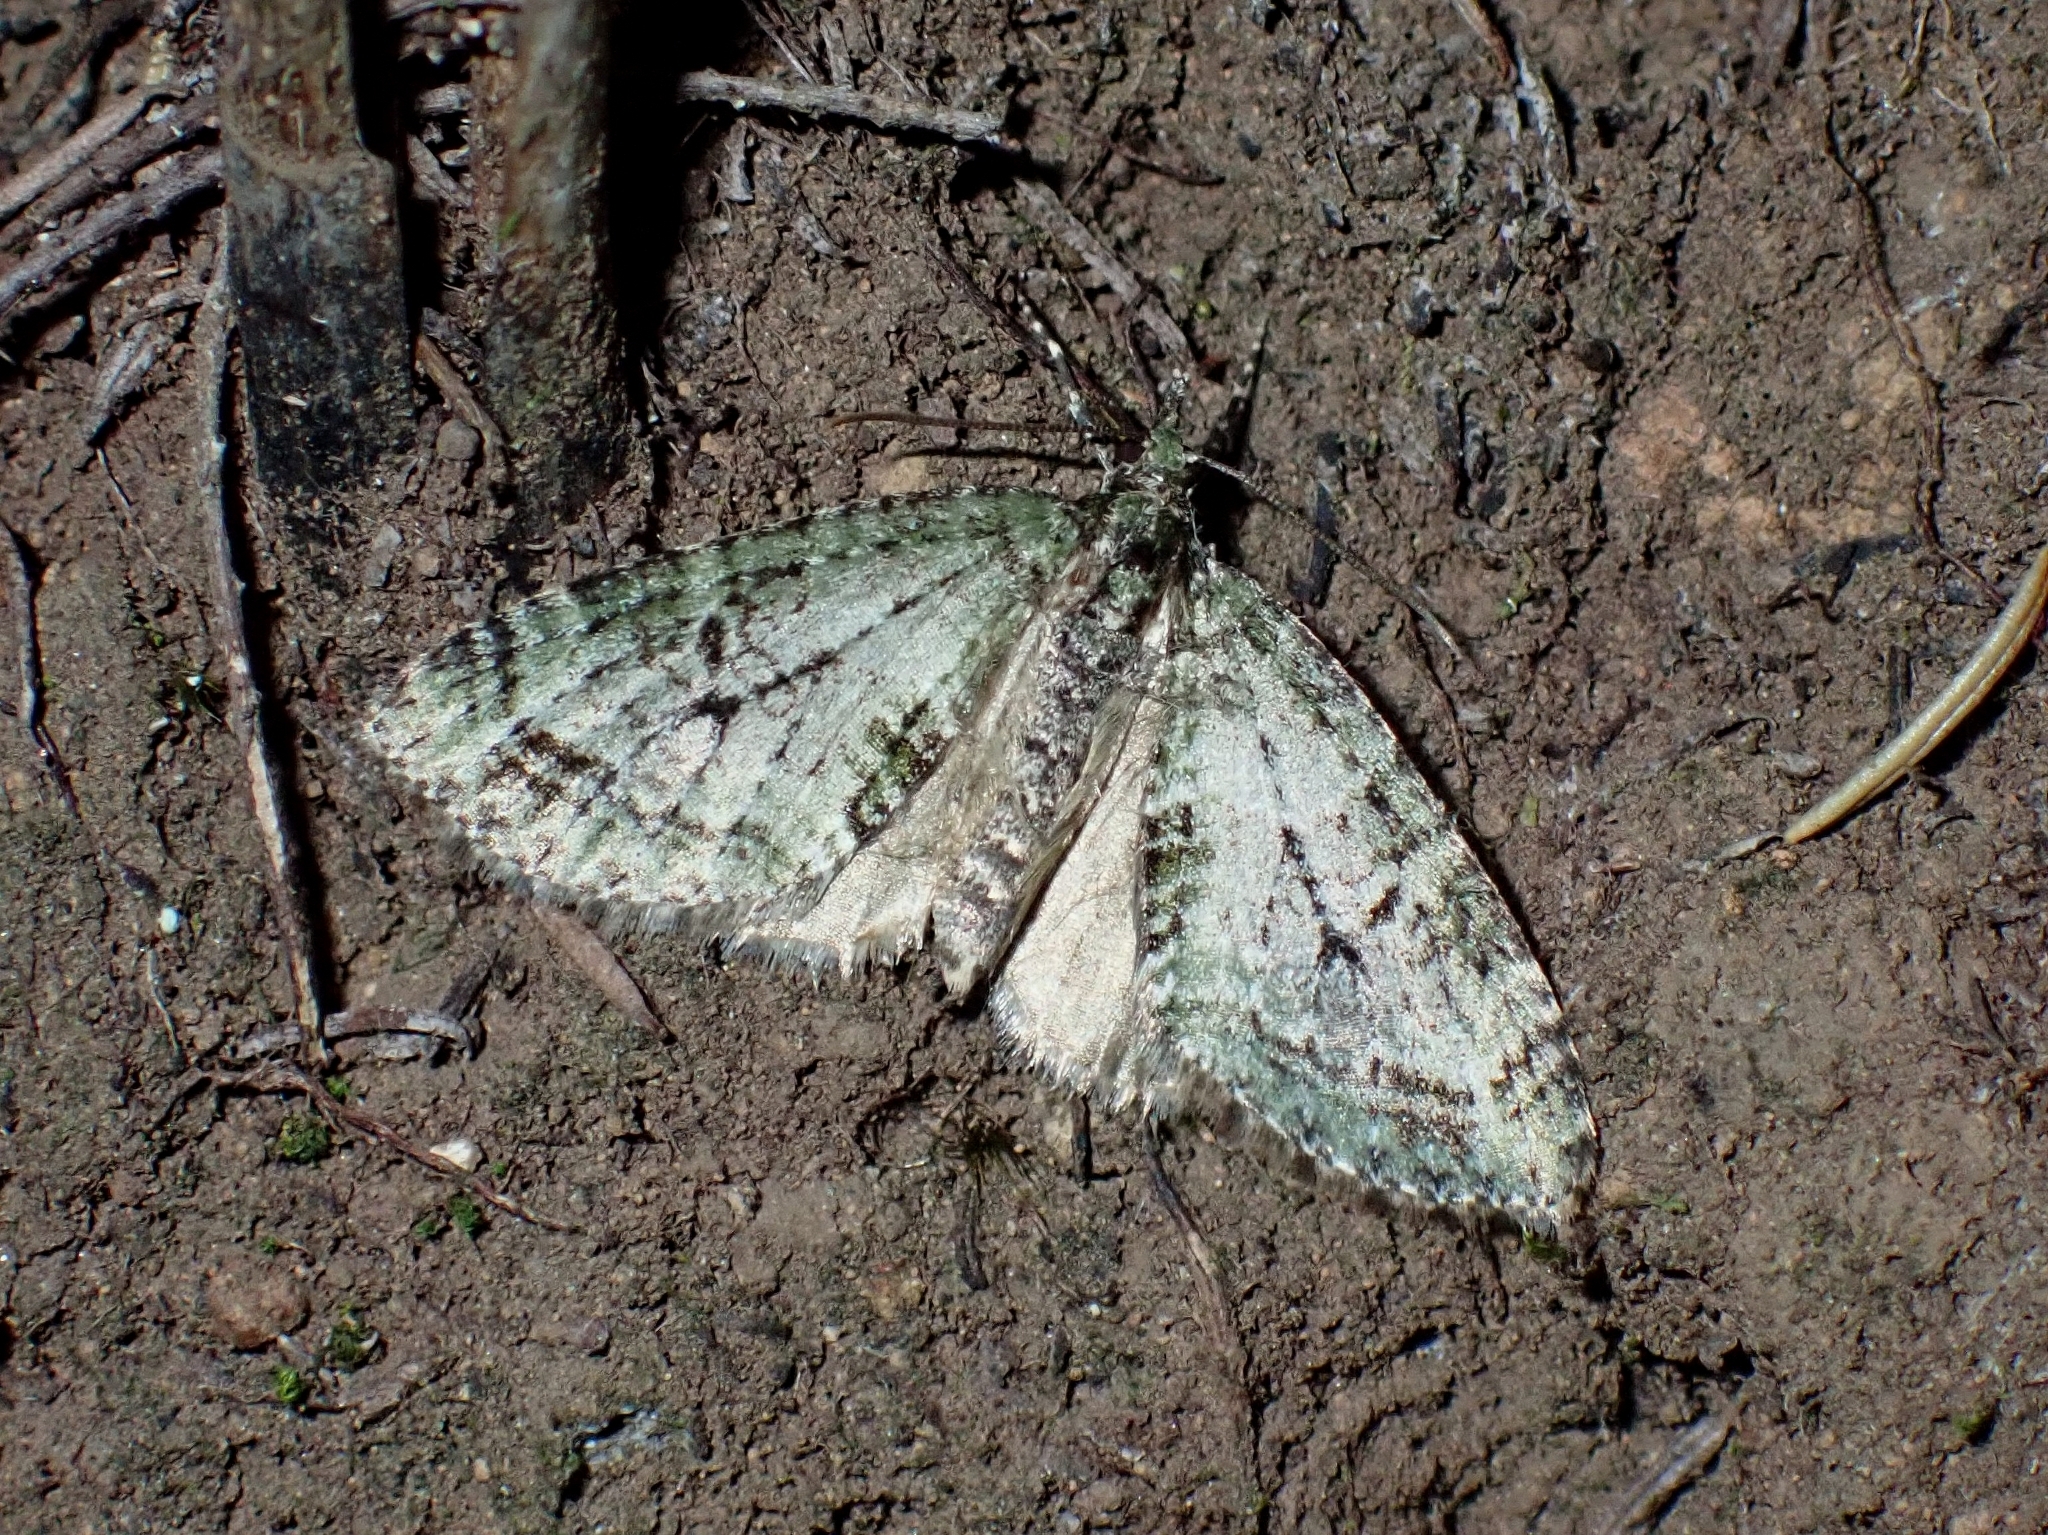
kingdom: Animalia
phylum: Arthropoda
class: Insecta
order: Lepidoptera
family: Geometridae
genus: Episauris
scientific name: Episauris kiliani
